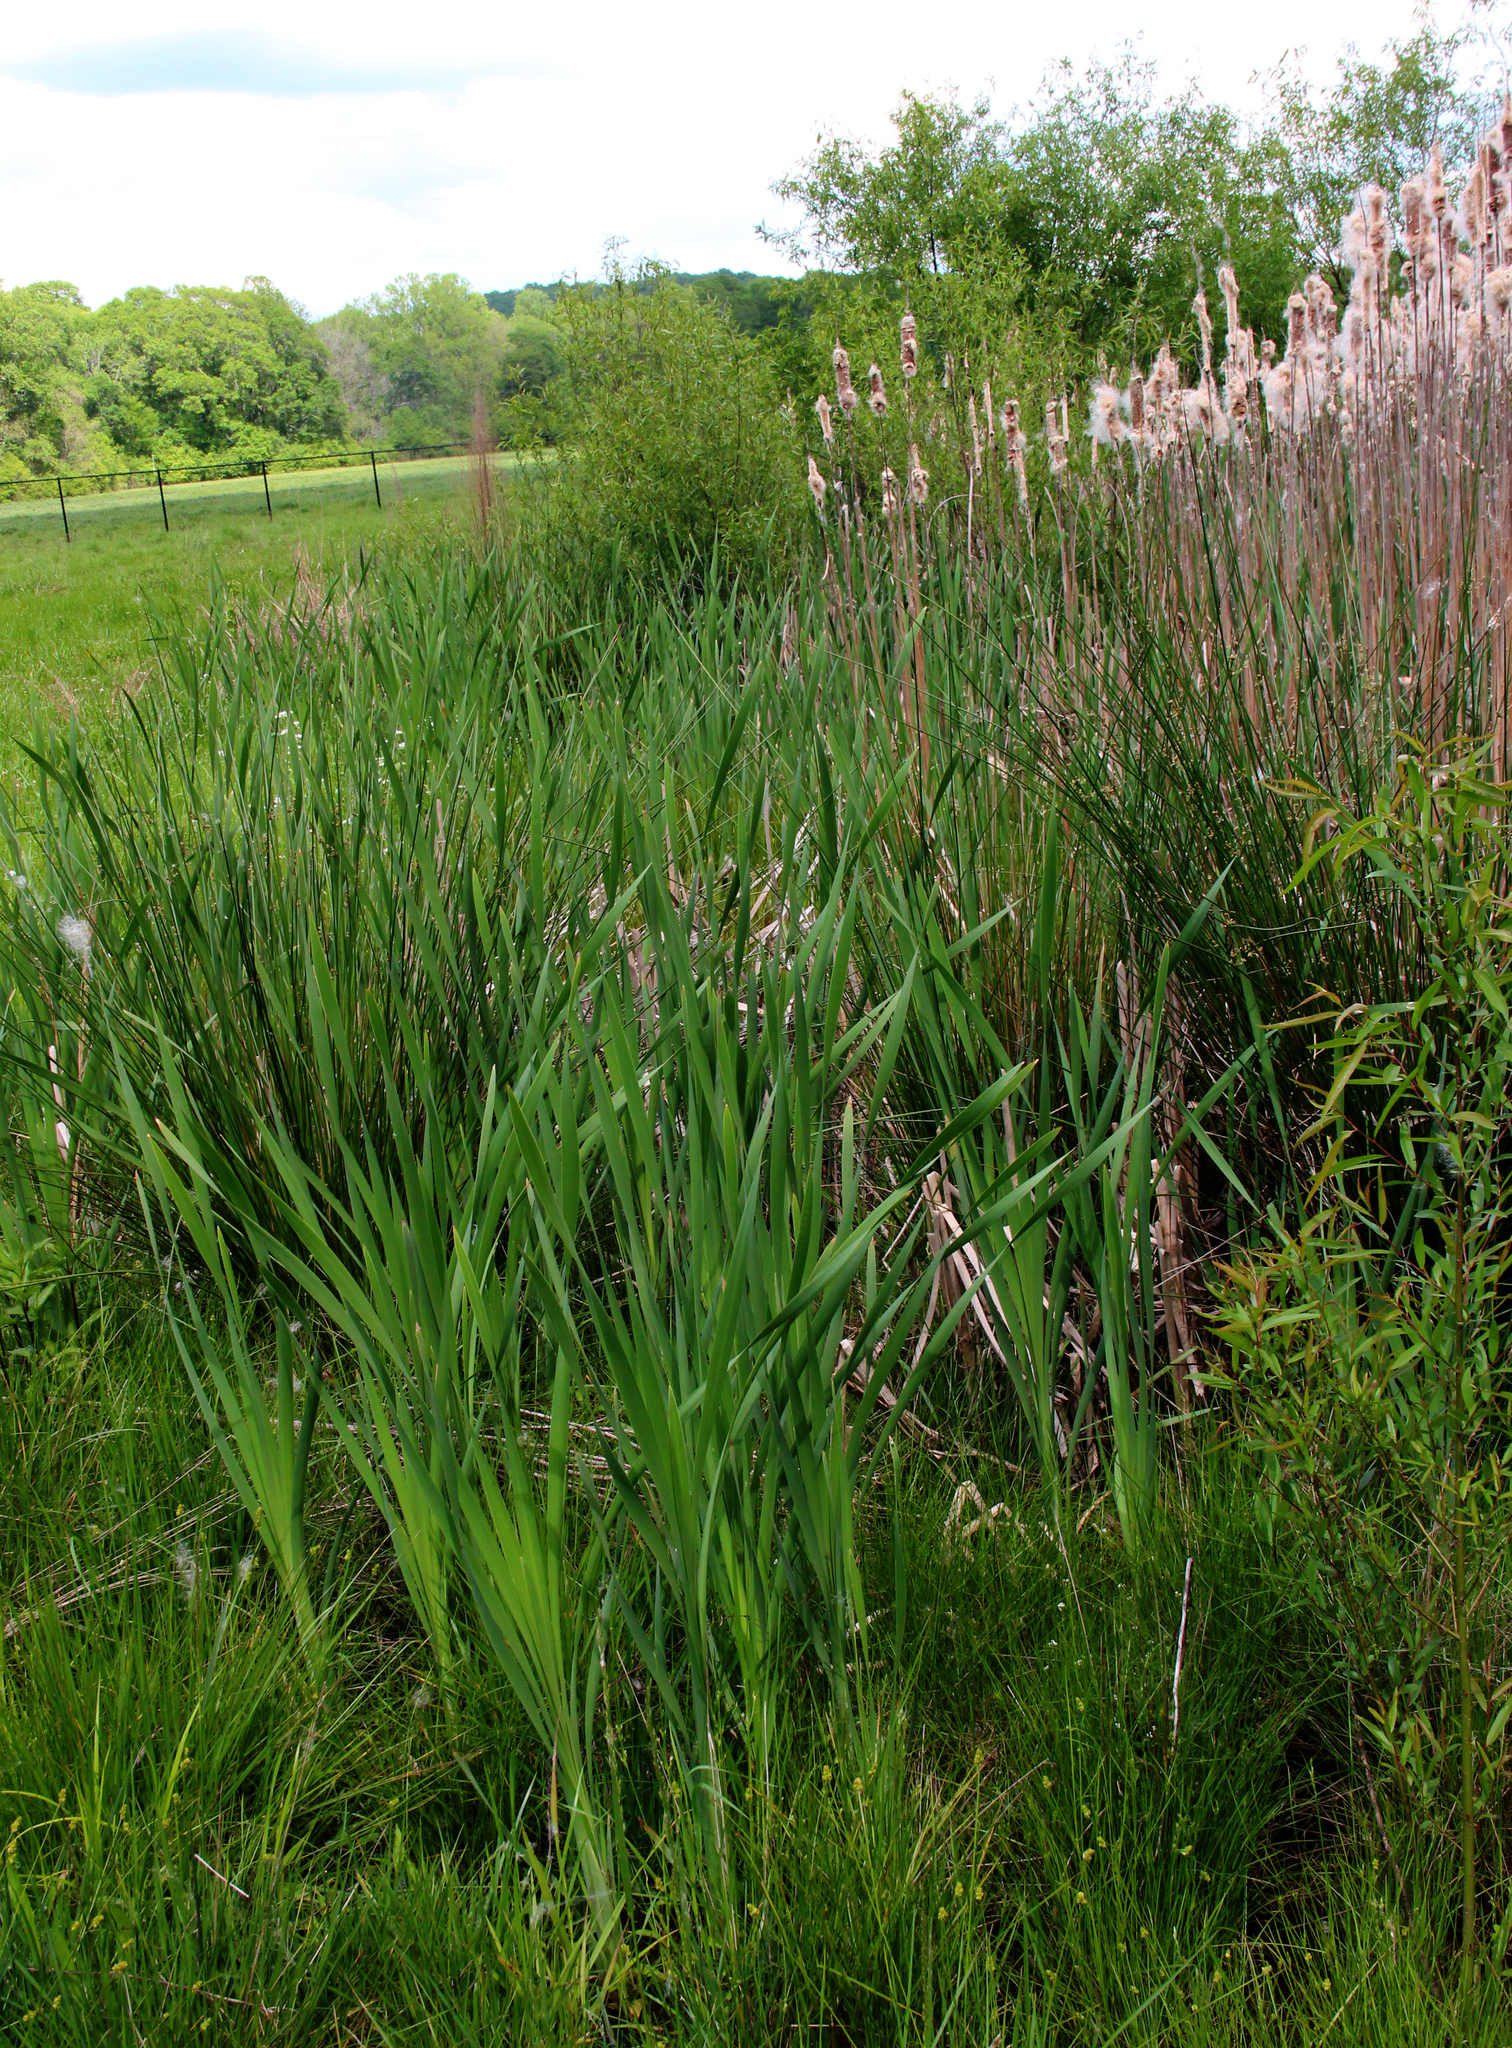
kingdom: Plantae
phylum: Tracheophyta
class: Liliopsida
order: Poales
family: Typhaceae
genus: Typha
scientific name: Typha latifolia
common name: Broadleaf cattail
